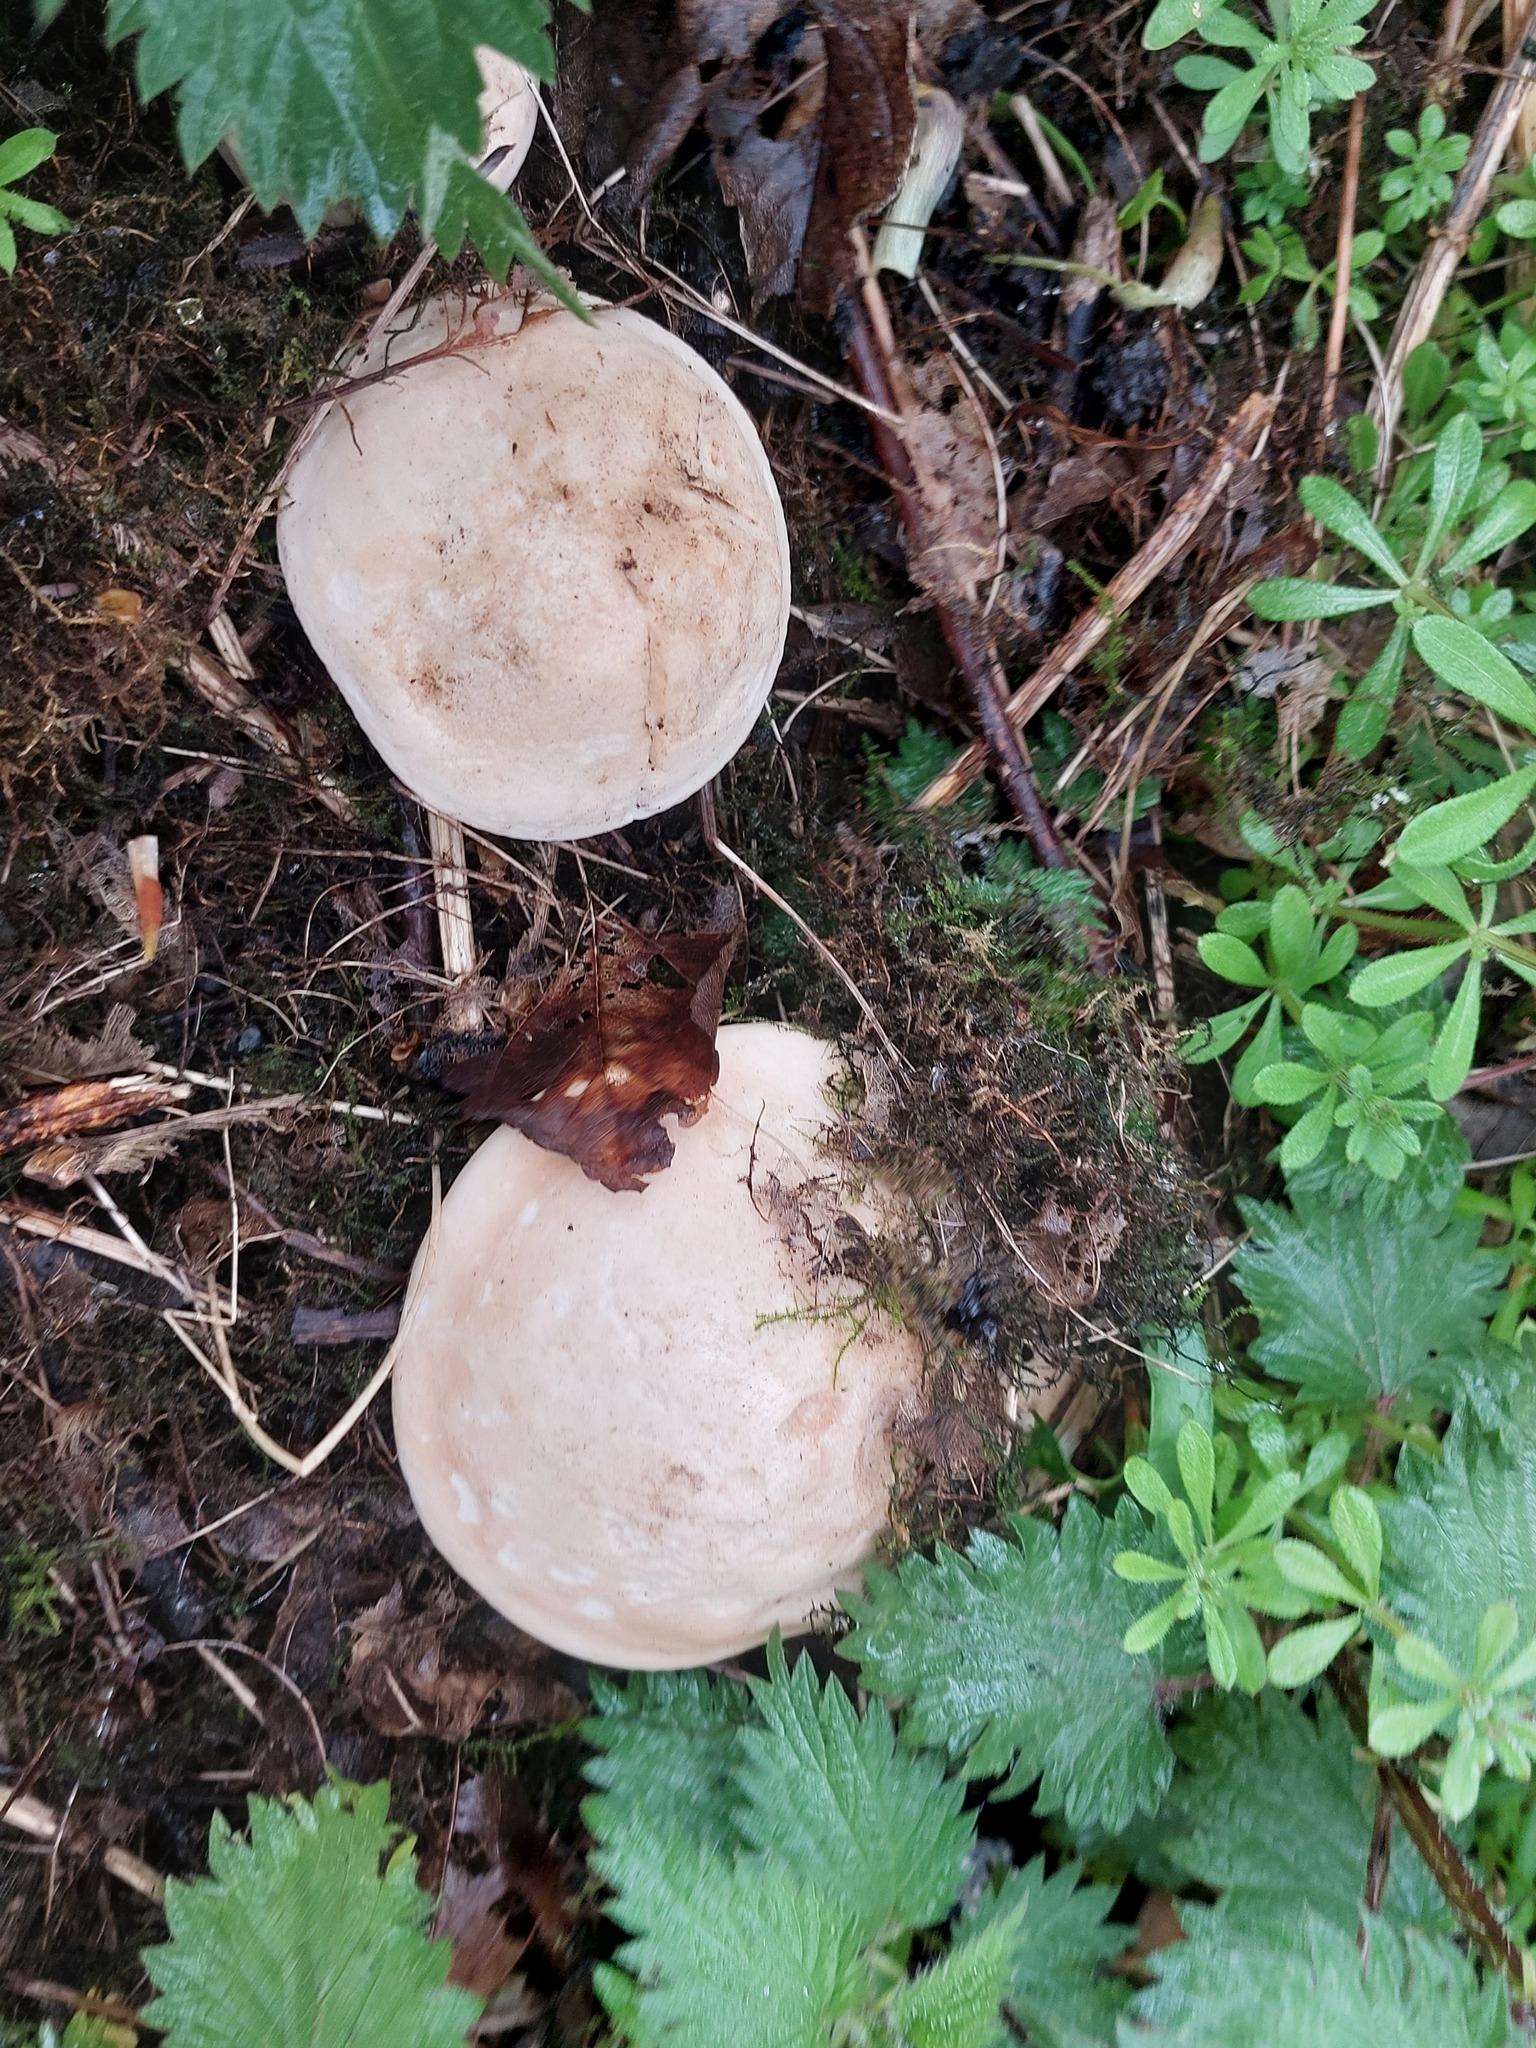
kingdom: Fungi
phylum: Basidiomycota
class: Agaricomycetes
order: Agaricales
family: Lyophyllaceae
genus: Calocybe
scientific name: Calocybe gambosa
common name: St. george's mushroom
